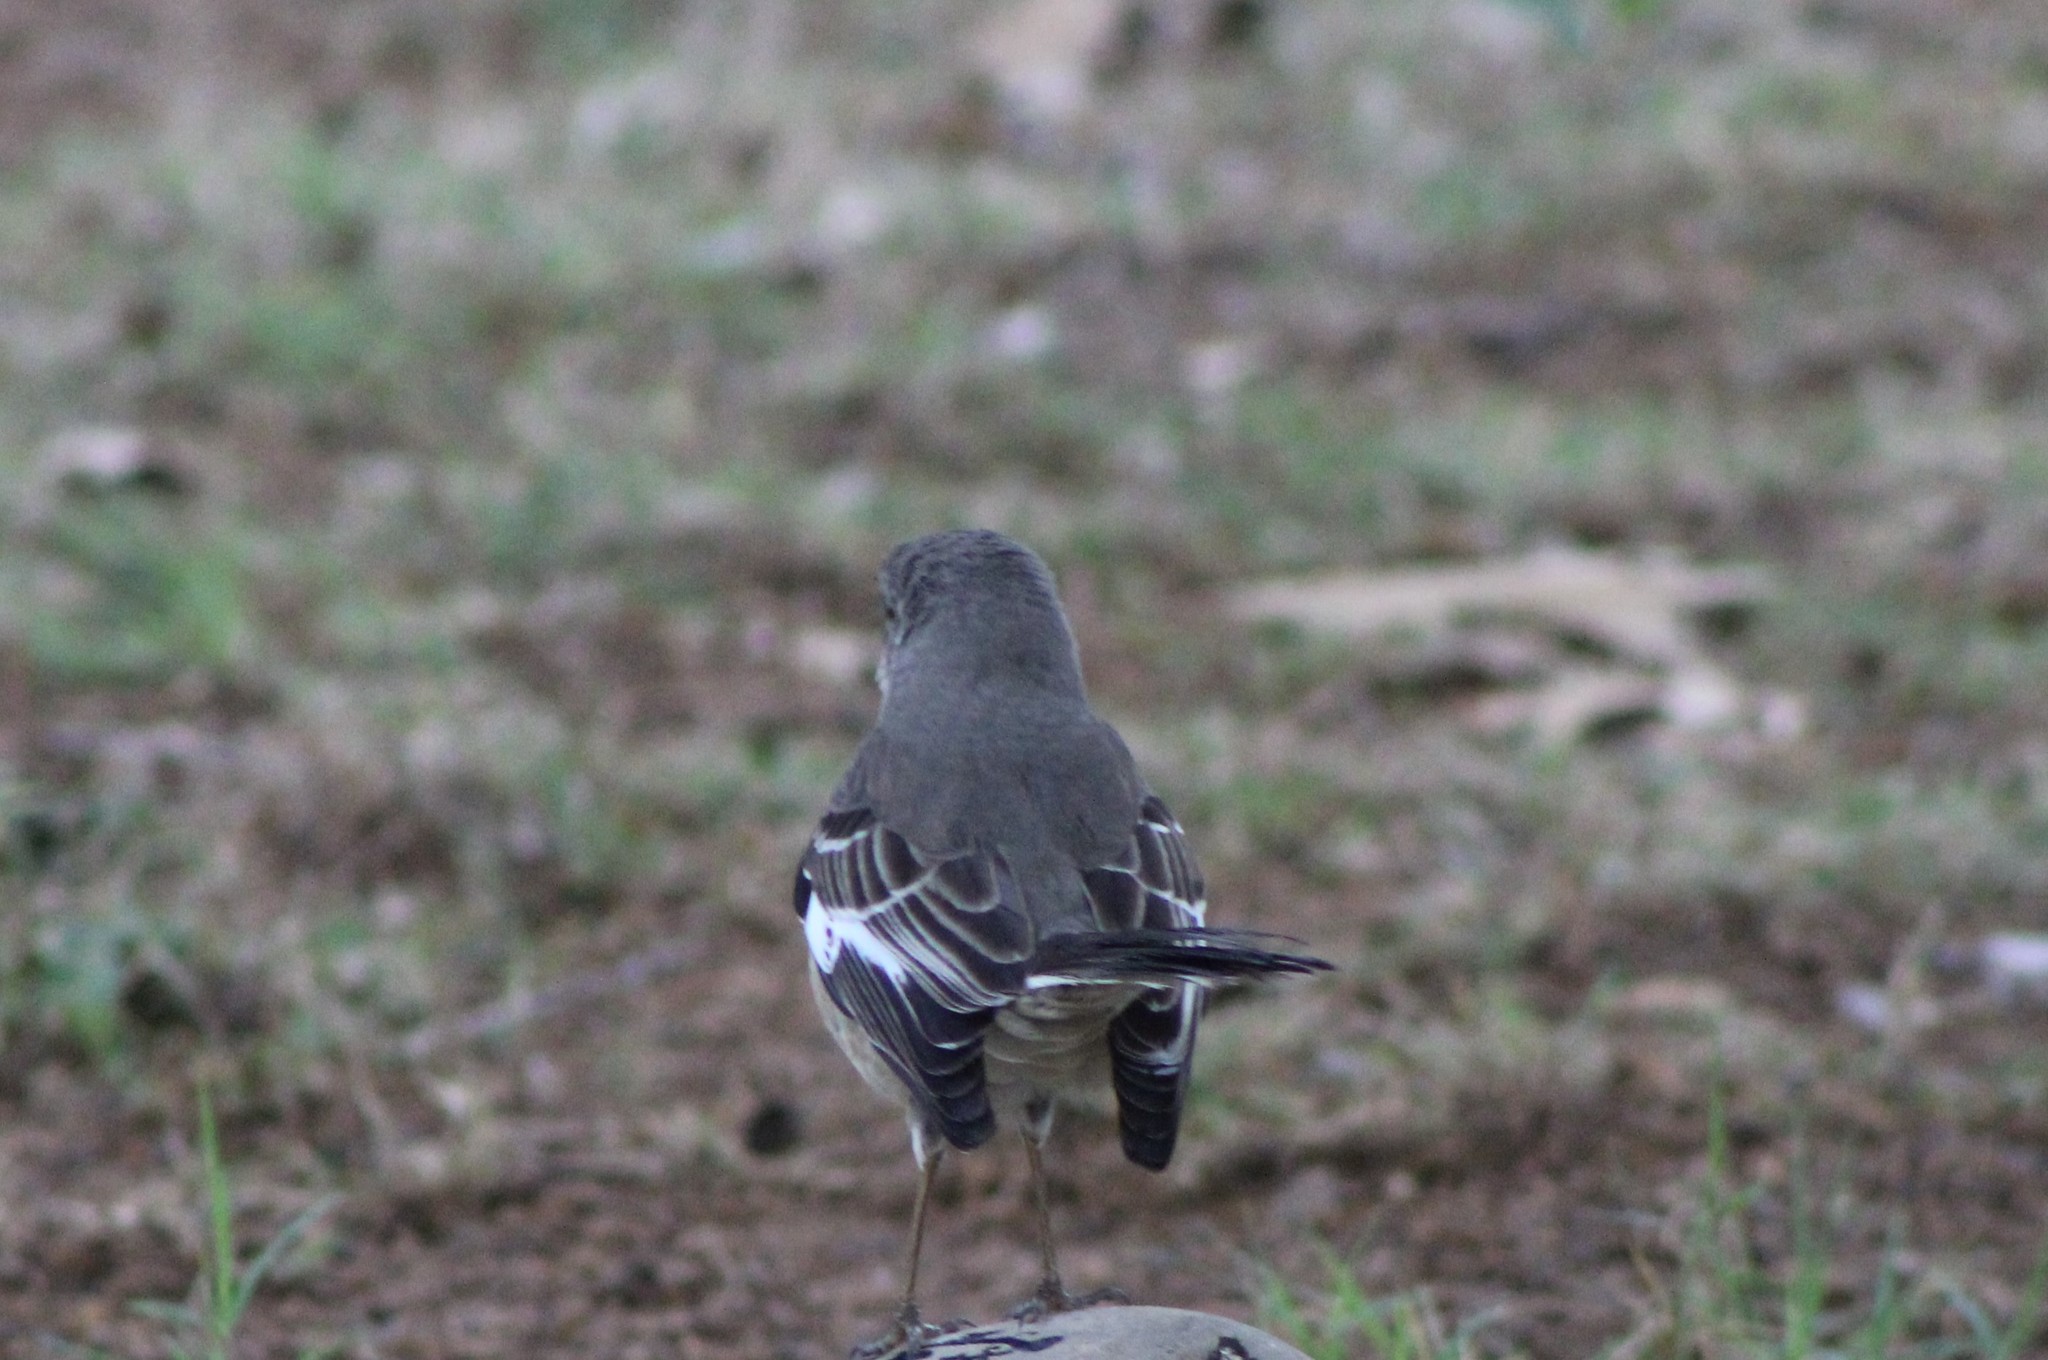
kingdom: Animalia
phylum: Chordata
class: Aves
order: Passeriformes
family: Mimidae
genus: Mimus
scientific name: Mimus polyglottos
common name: Northern mockingbird
